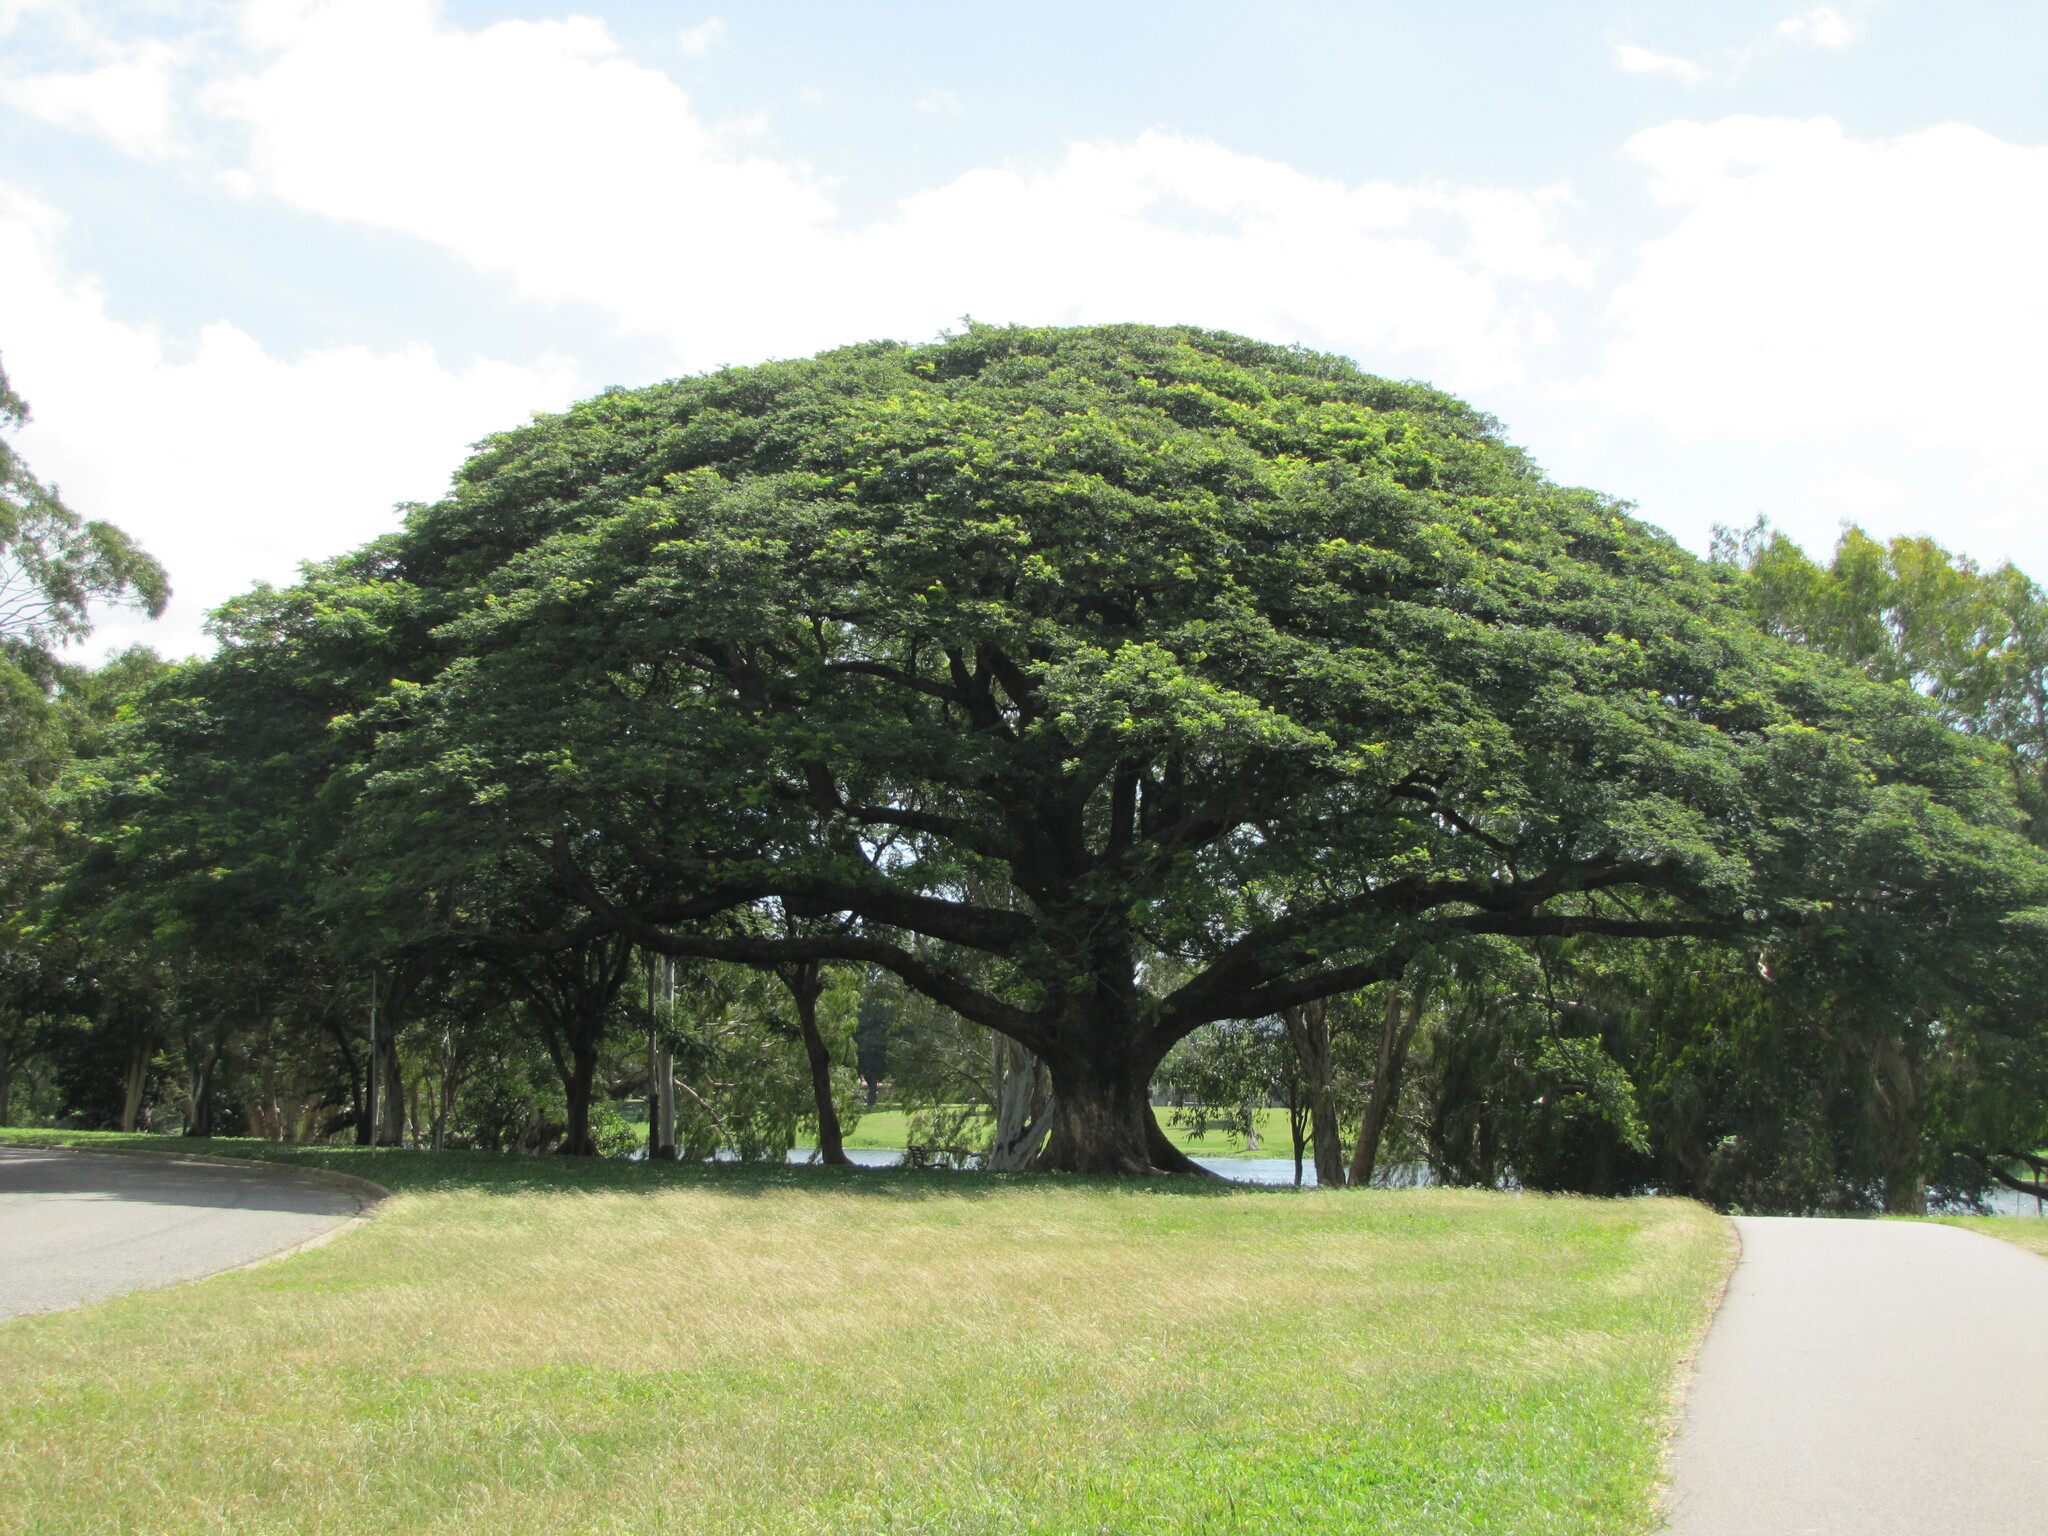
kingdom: Plantae
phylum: Tracheophyta
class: Magnoliopsida
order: Fabales
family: Fabaceae
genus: Samanea
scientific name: Samanea saman
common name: Raintree
